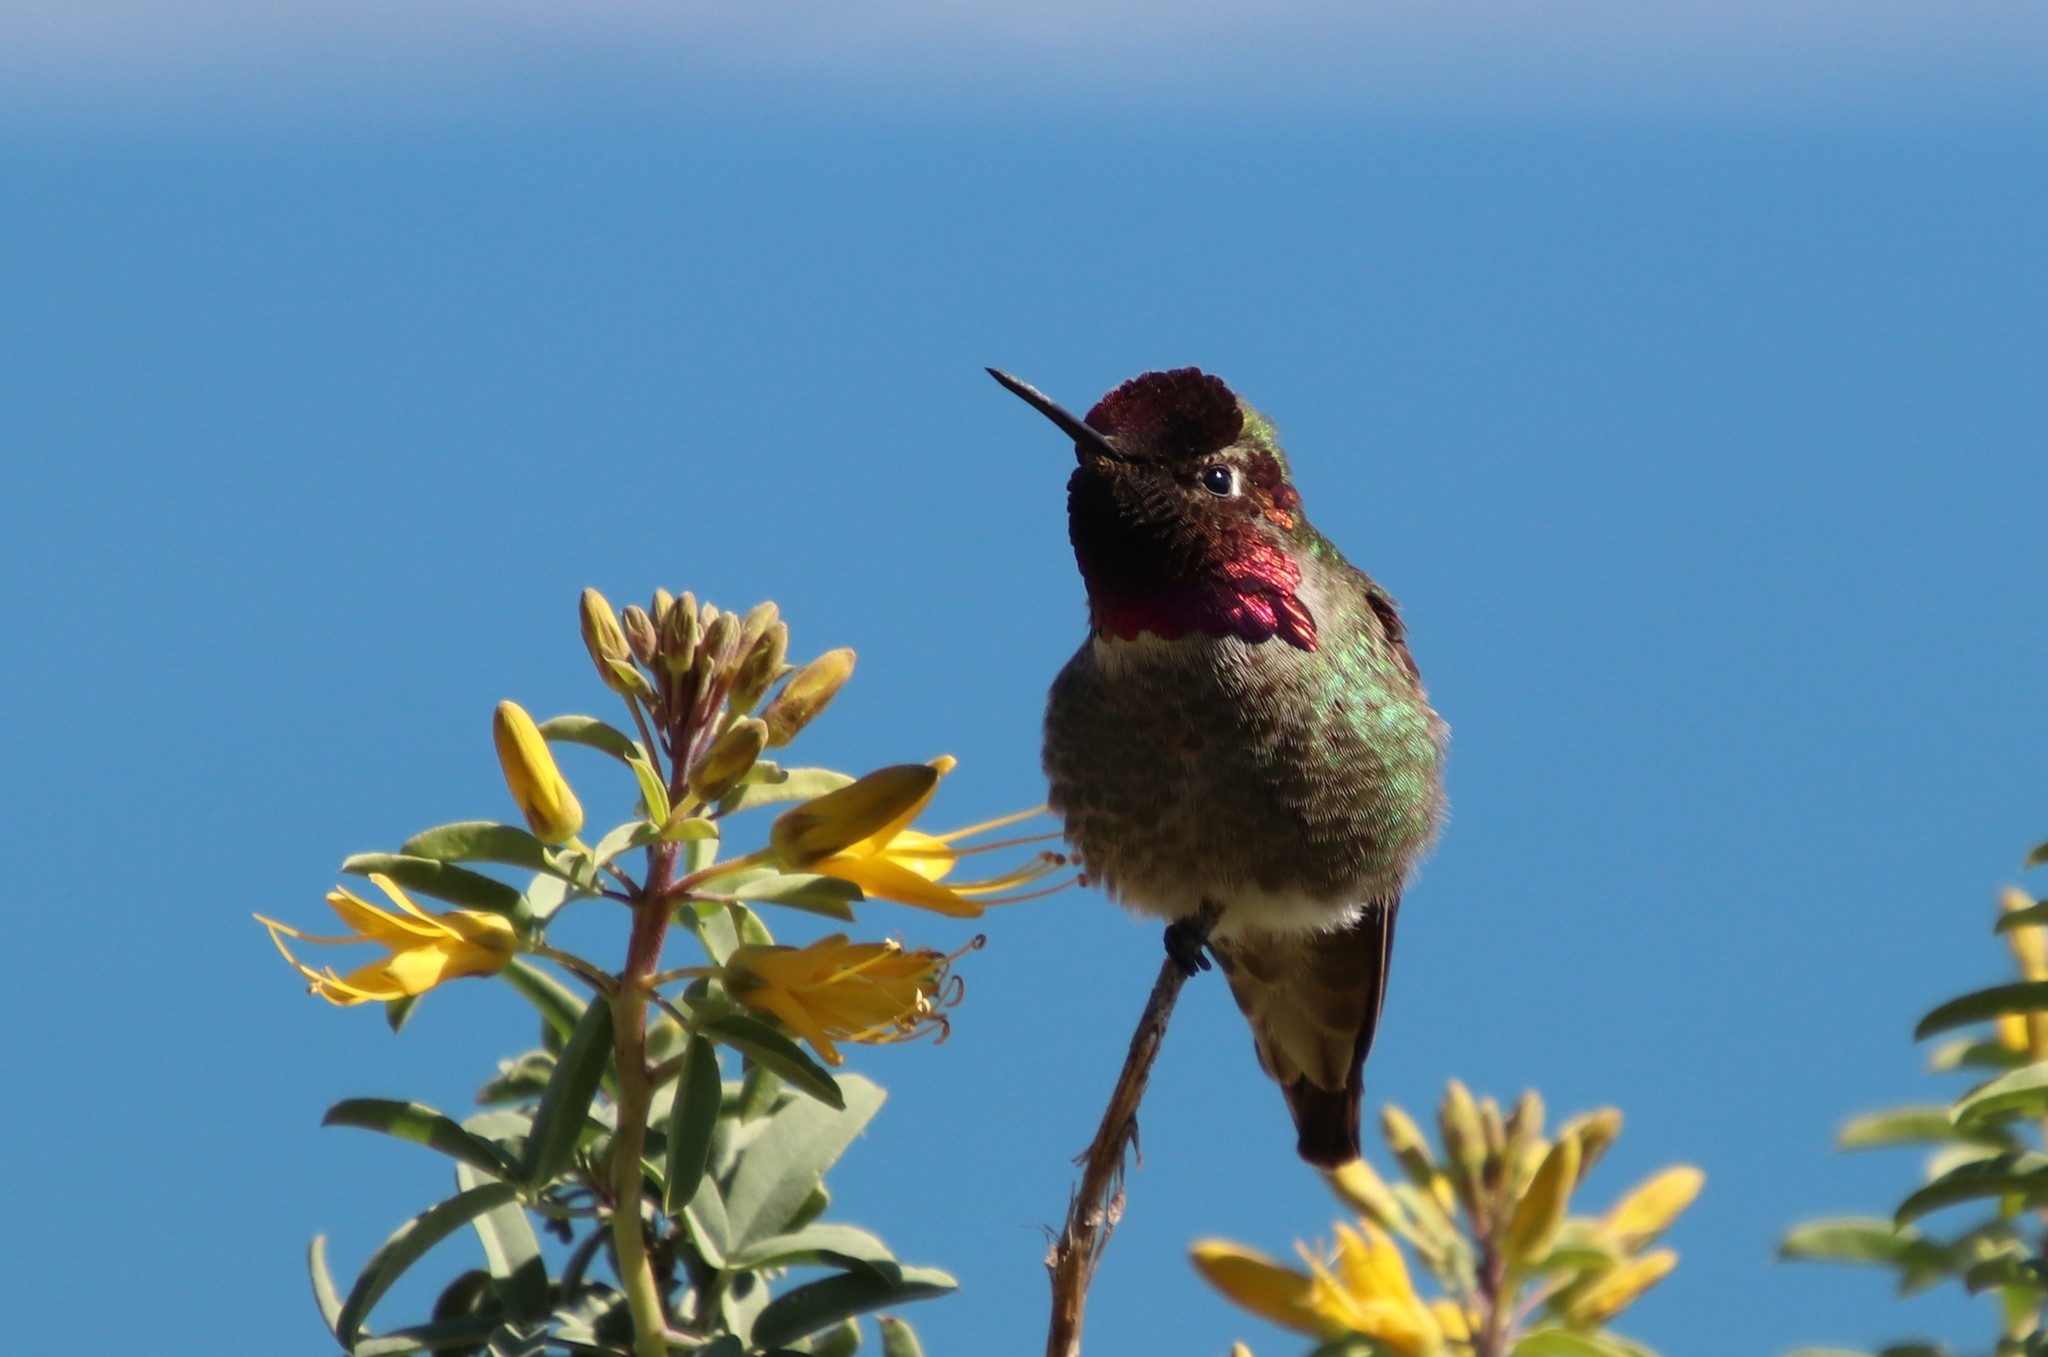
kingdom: Animalia
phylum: Chordata
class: Aves
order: Apodiformes
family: Trochilidae
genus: Calypte
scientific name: Calypte anna
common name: Anna's hummingbird
